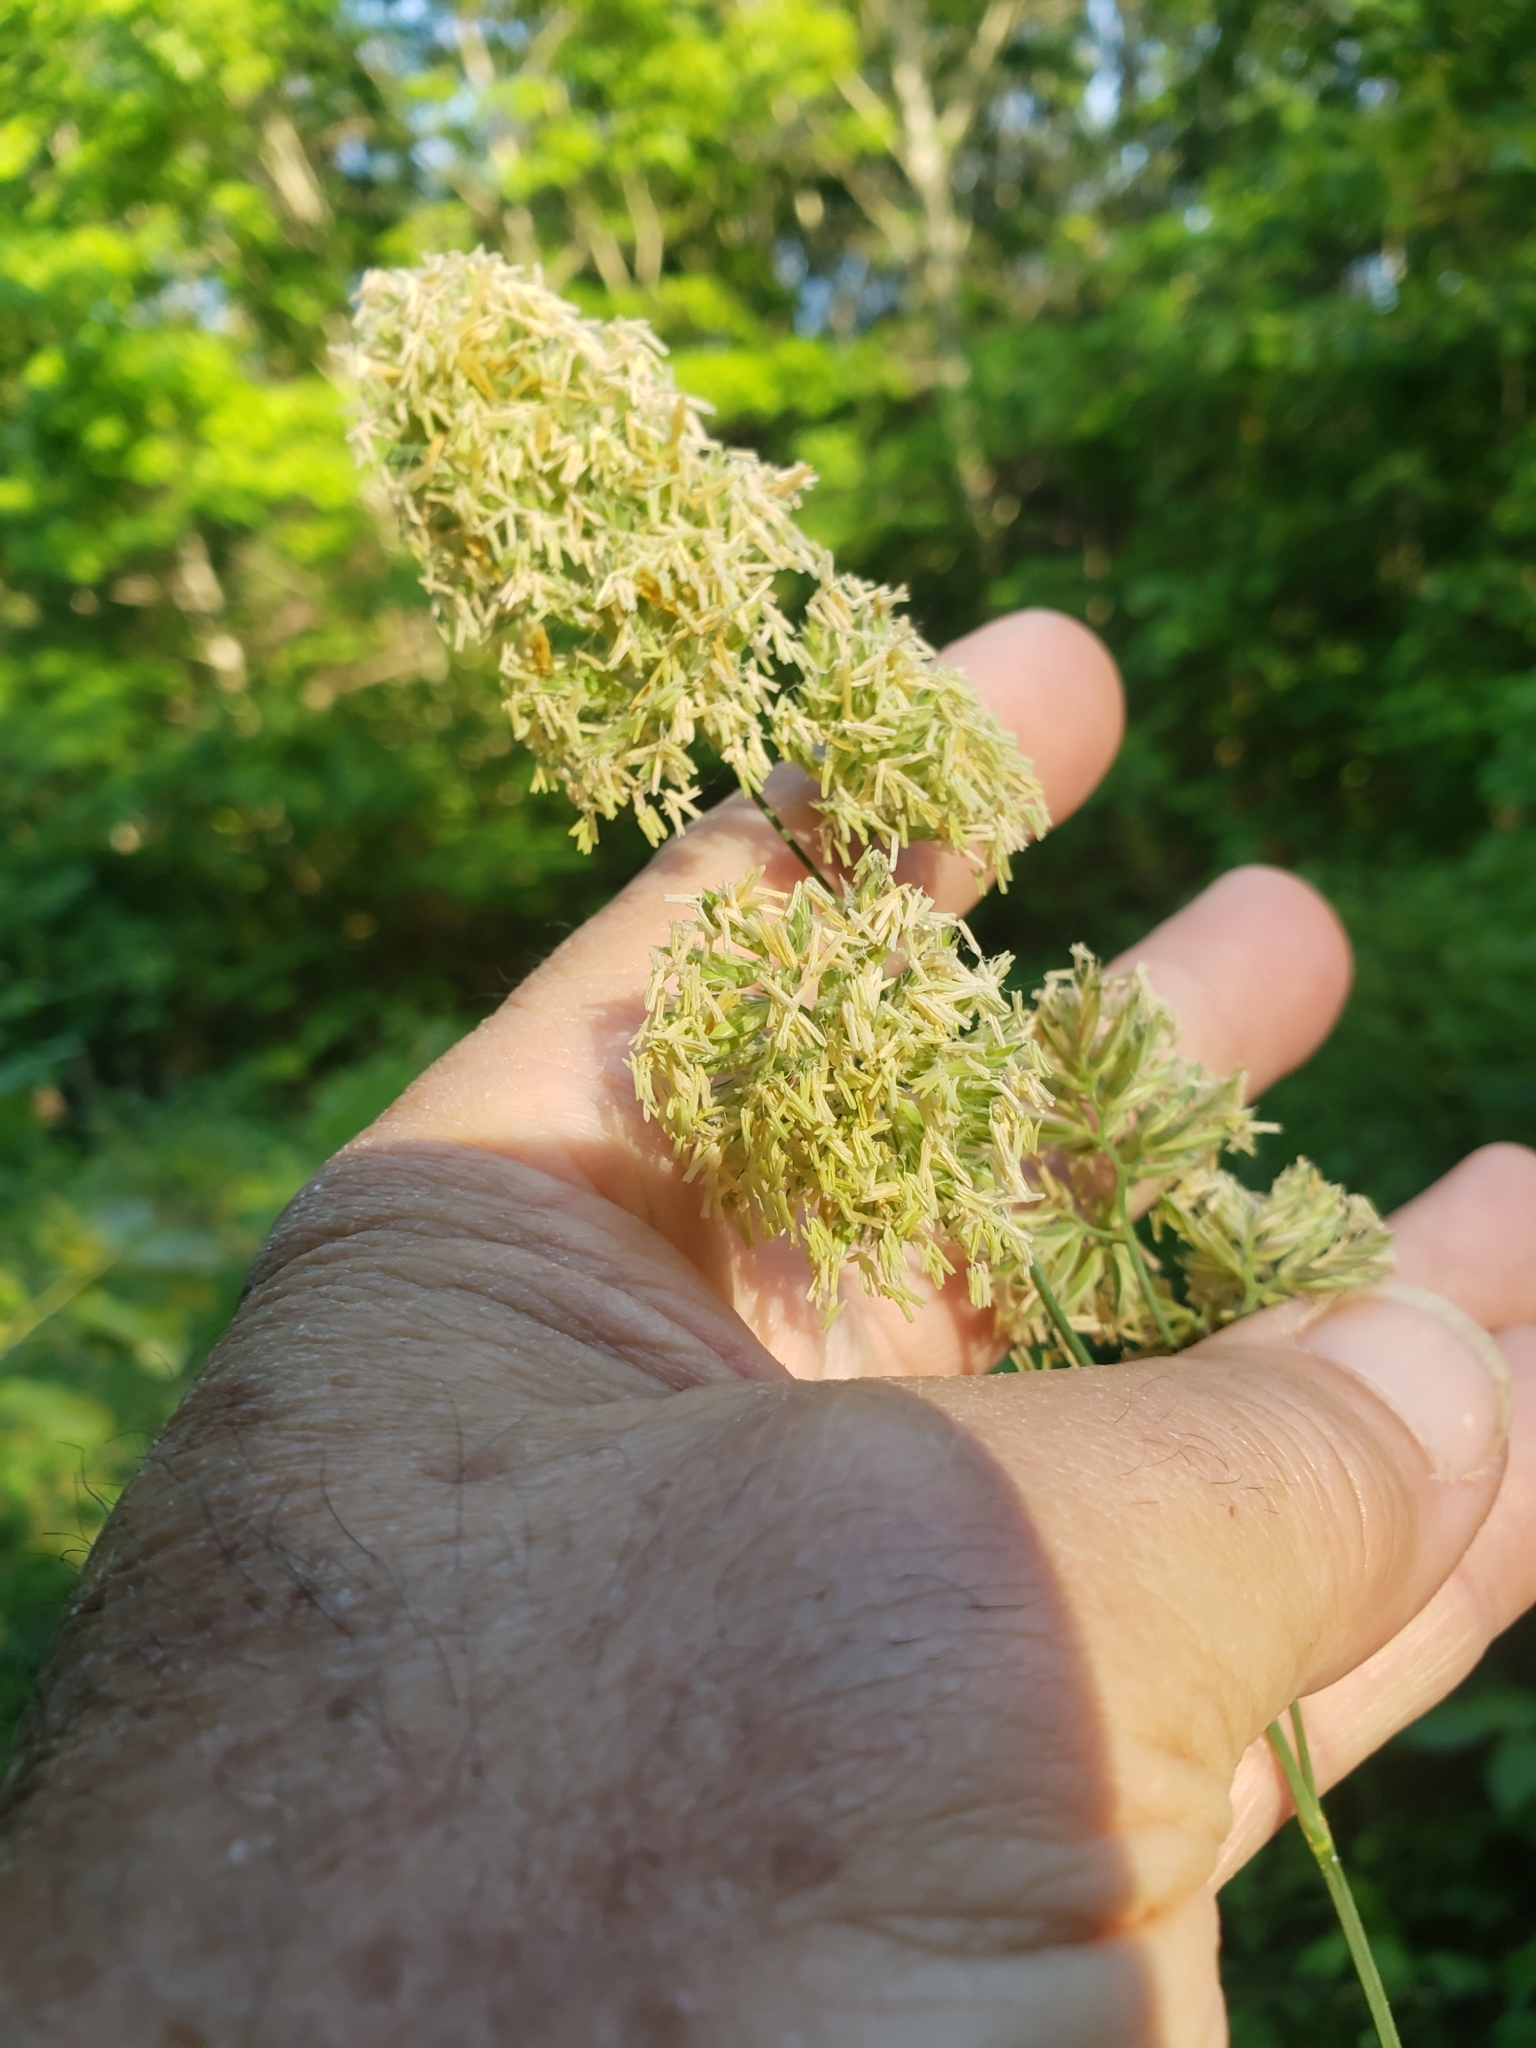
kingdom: Plantae
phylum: Tracheophyta
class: Liliopsida
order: Poales
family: Poaceae
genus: Dactylis
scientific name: Dactylis glomerata
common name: Orchardgrass
